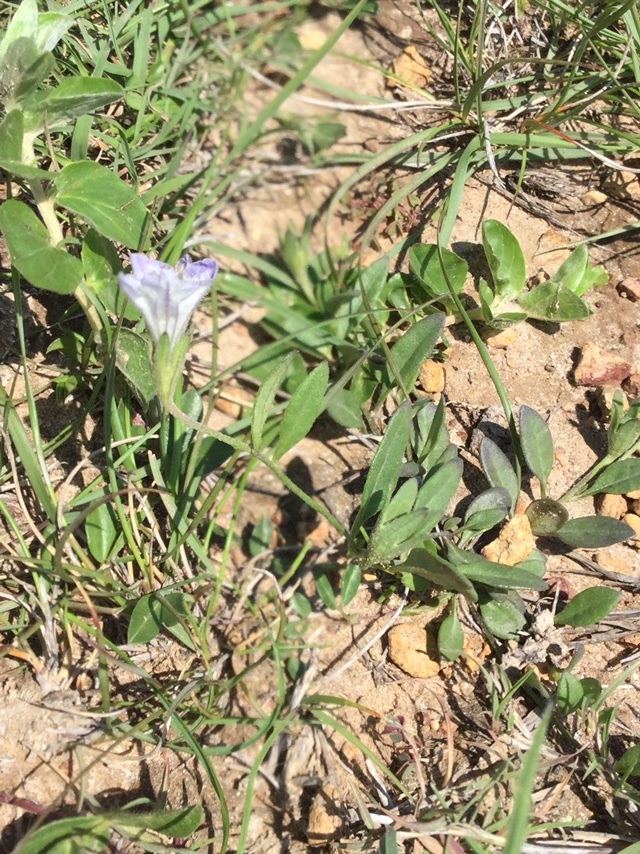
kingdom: Plantae
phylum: Tracheophyta
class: Magnoliopsida
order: Solanales
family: Solanaceae
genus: Salpiglossis
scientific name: Salpiglossis erecta
